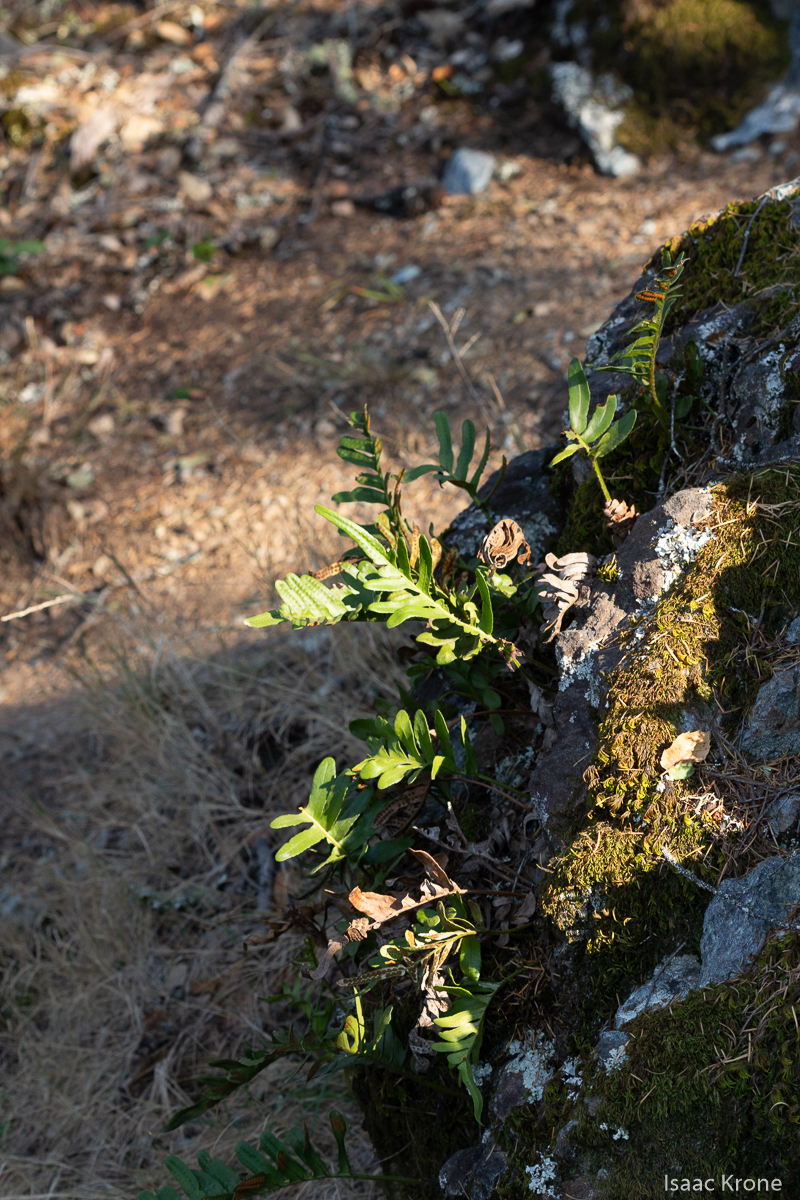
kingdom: Plantae
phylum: Tracheophyta
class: Polypodiopsida
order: Polypodiales
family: Polypodiaceae
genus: Polypodium
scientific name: Polypodium scouleri
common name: Scouler's polypody
